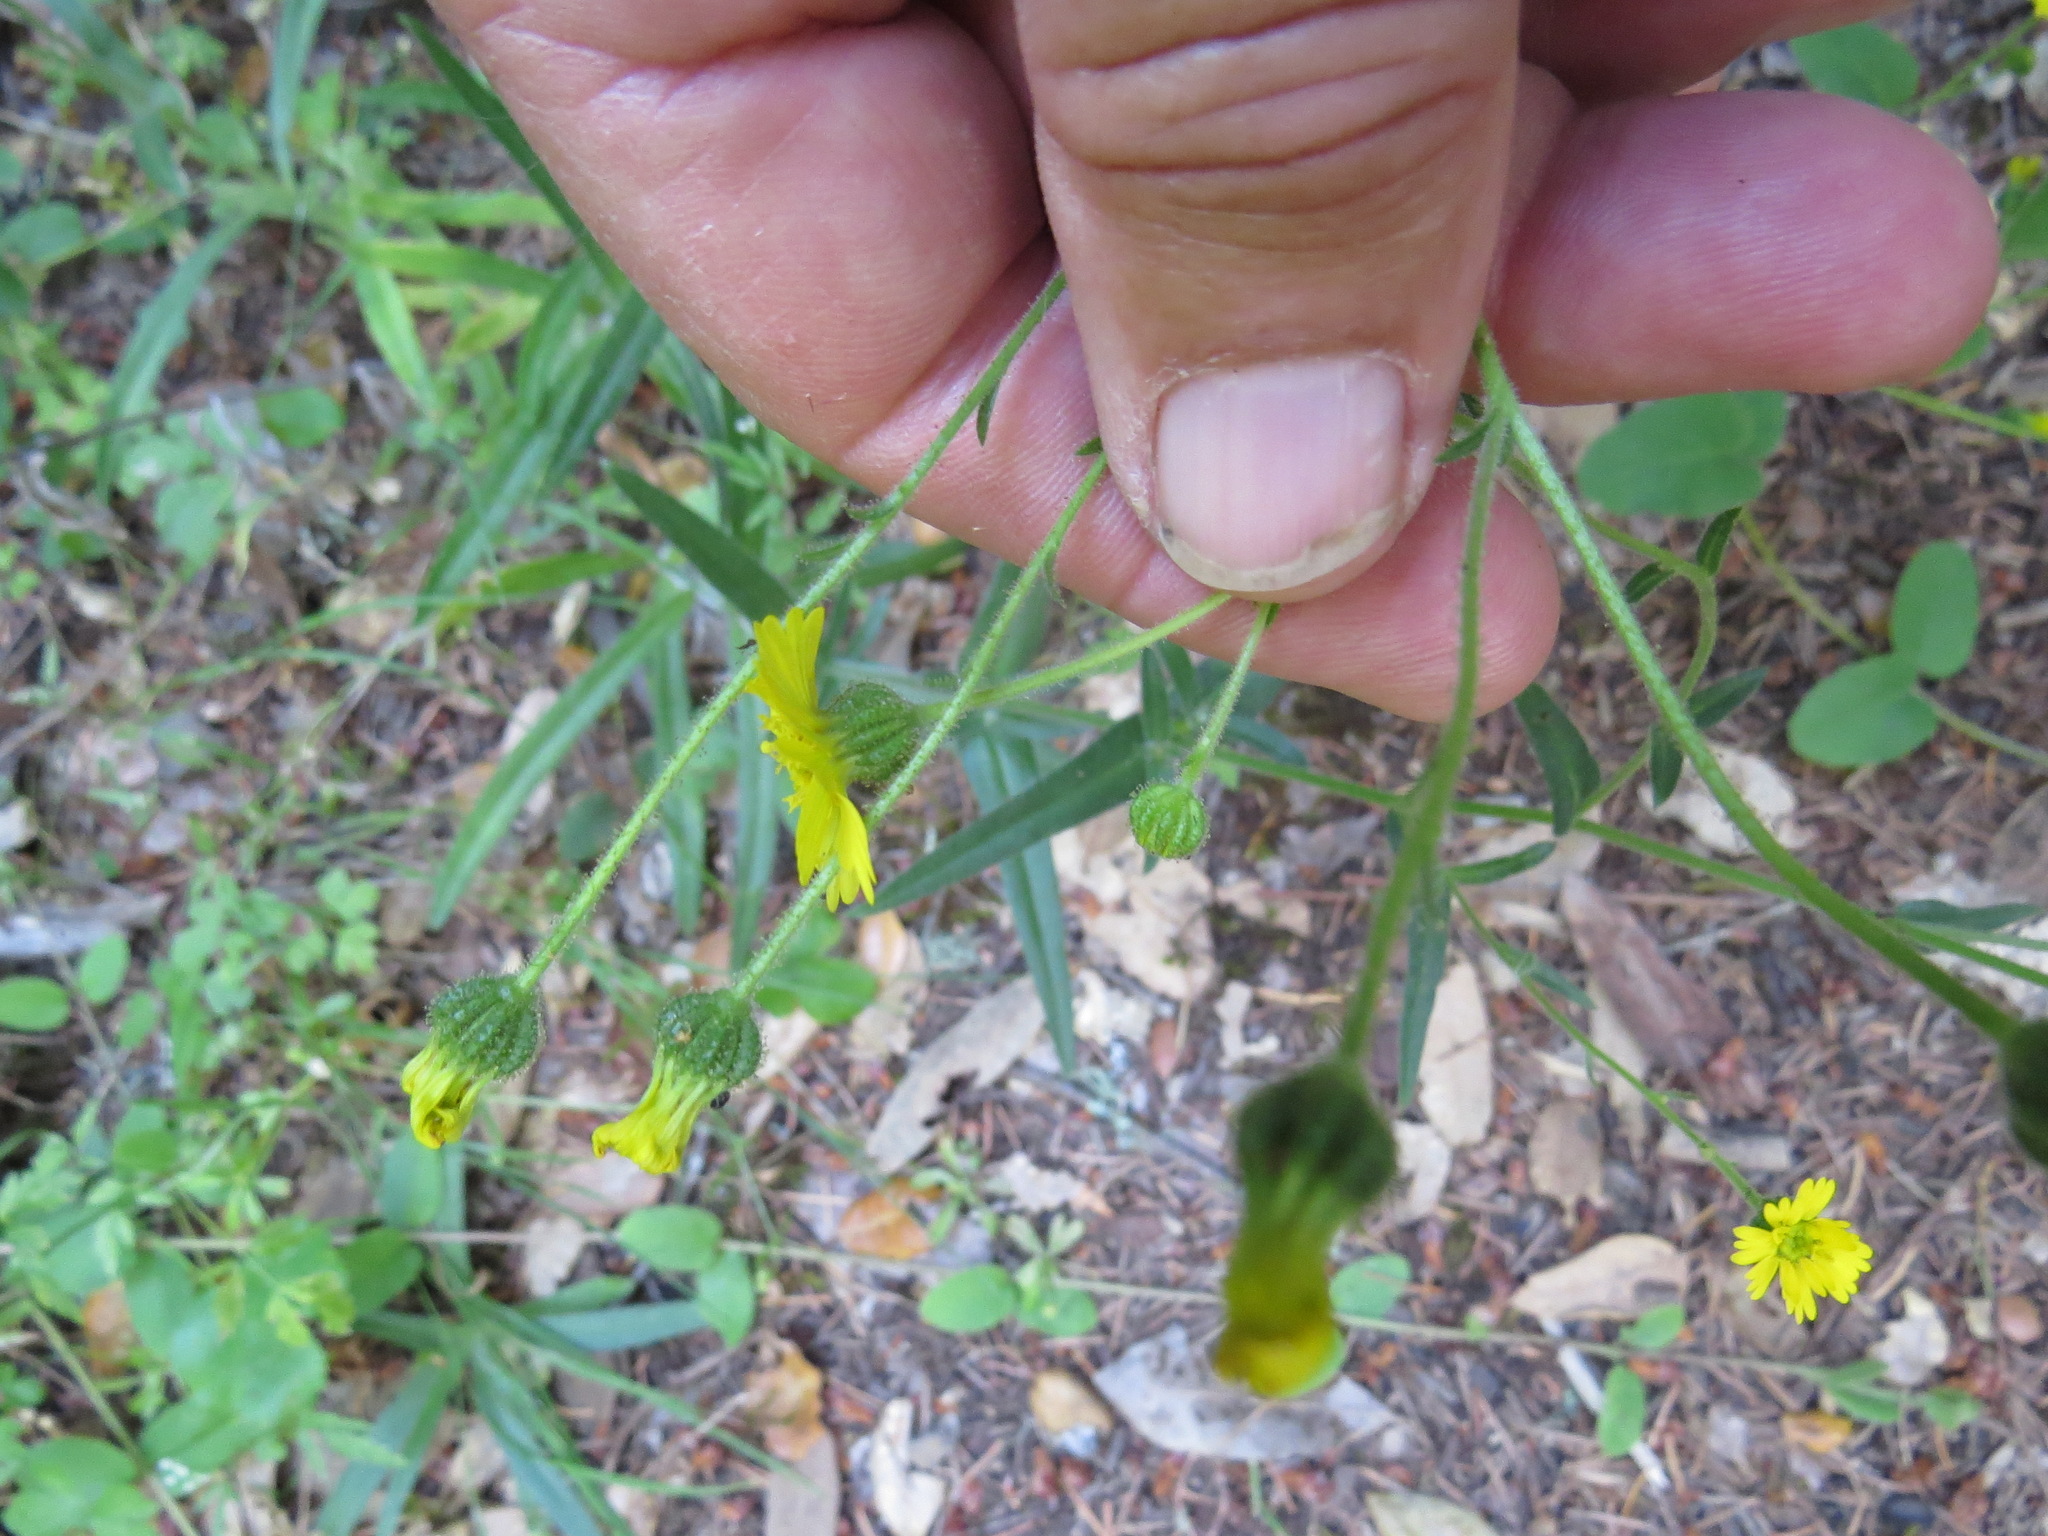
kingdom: Plantae
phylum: Tracheophyta
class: Magnoliopsida
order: Asterales
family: Asteraceae
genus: Anisocarpus
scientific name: Anisocarpus madioides
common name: Woodland madia
